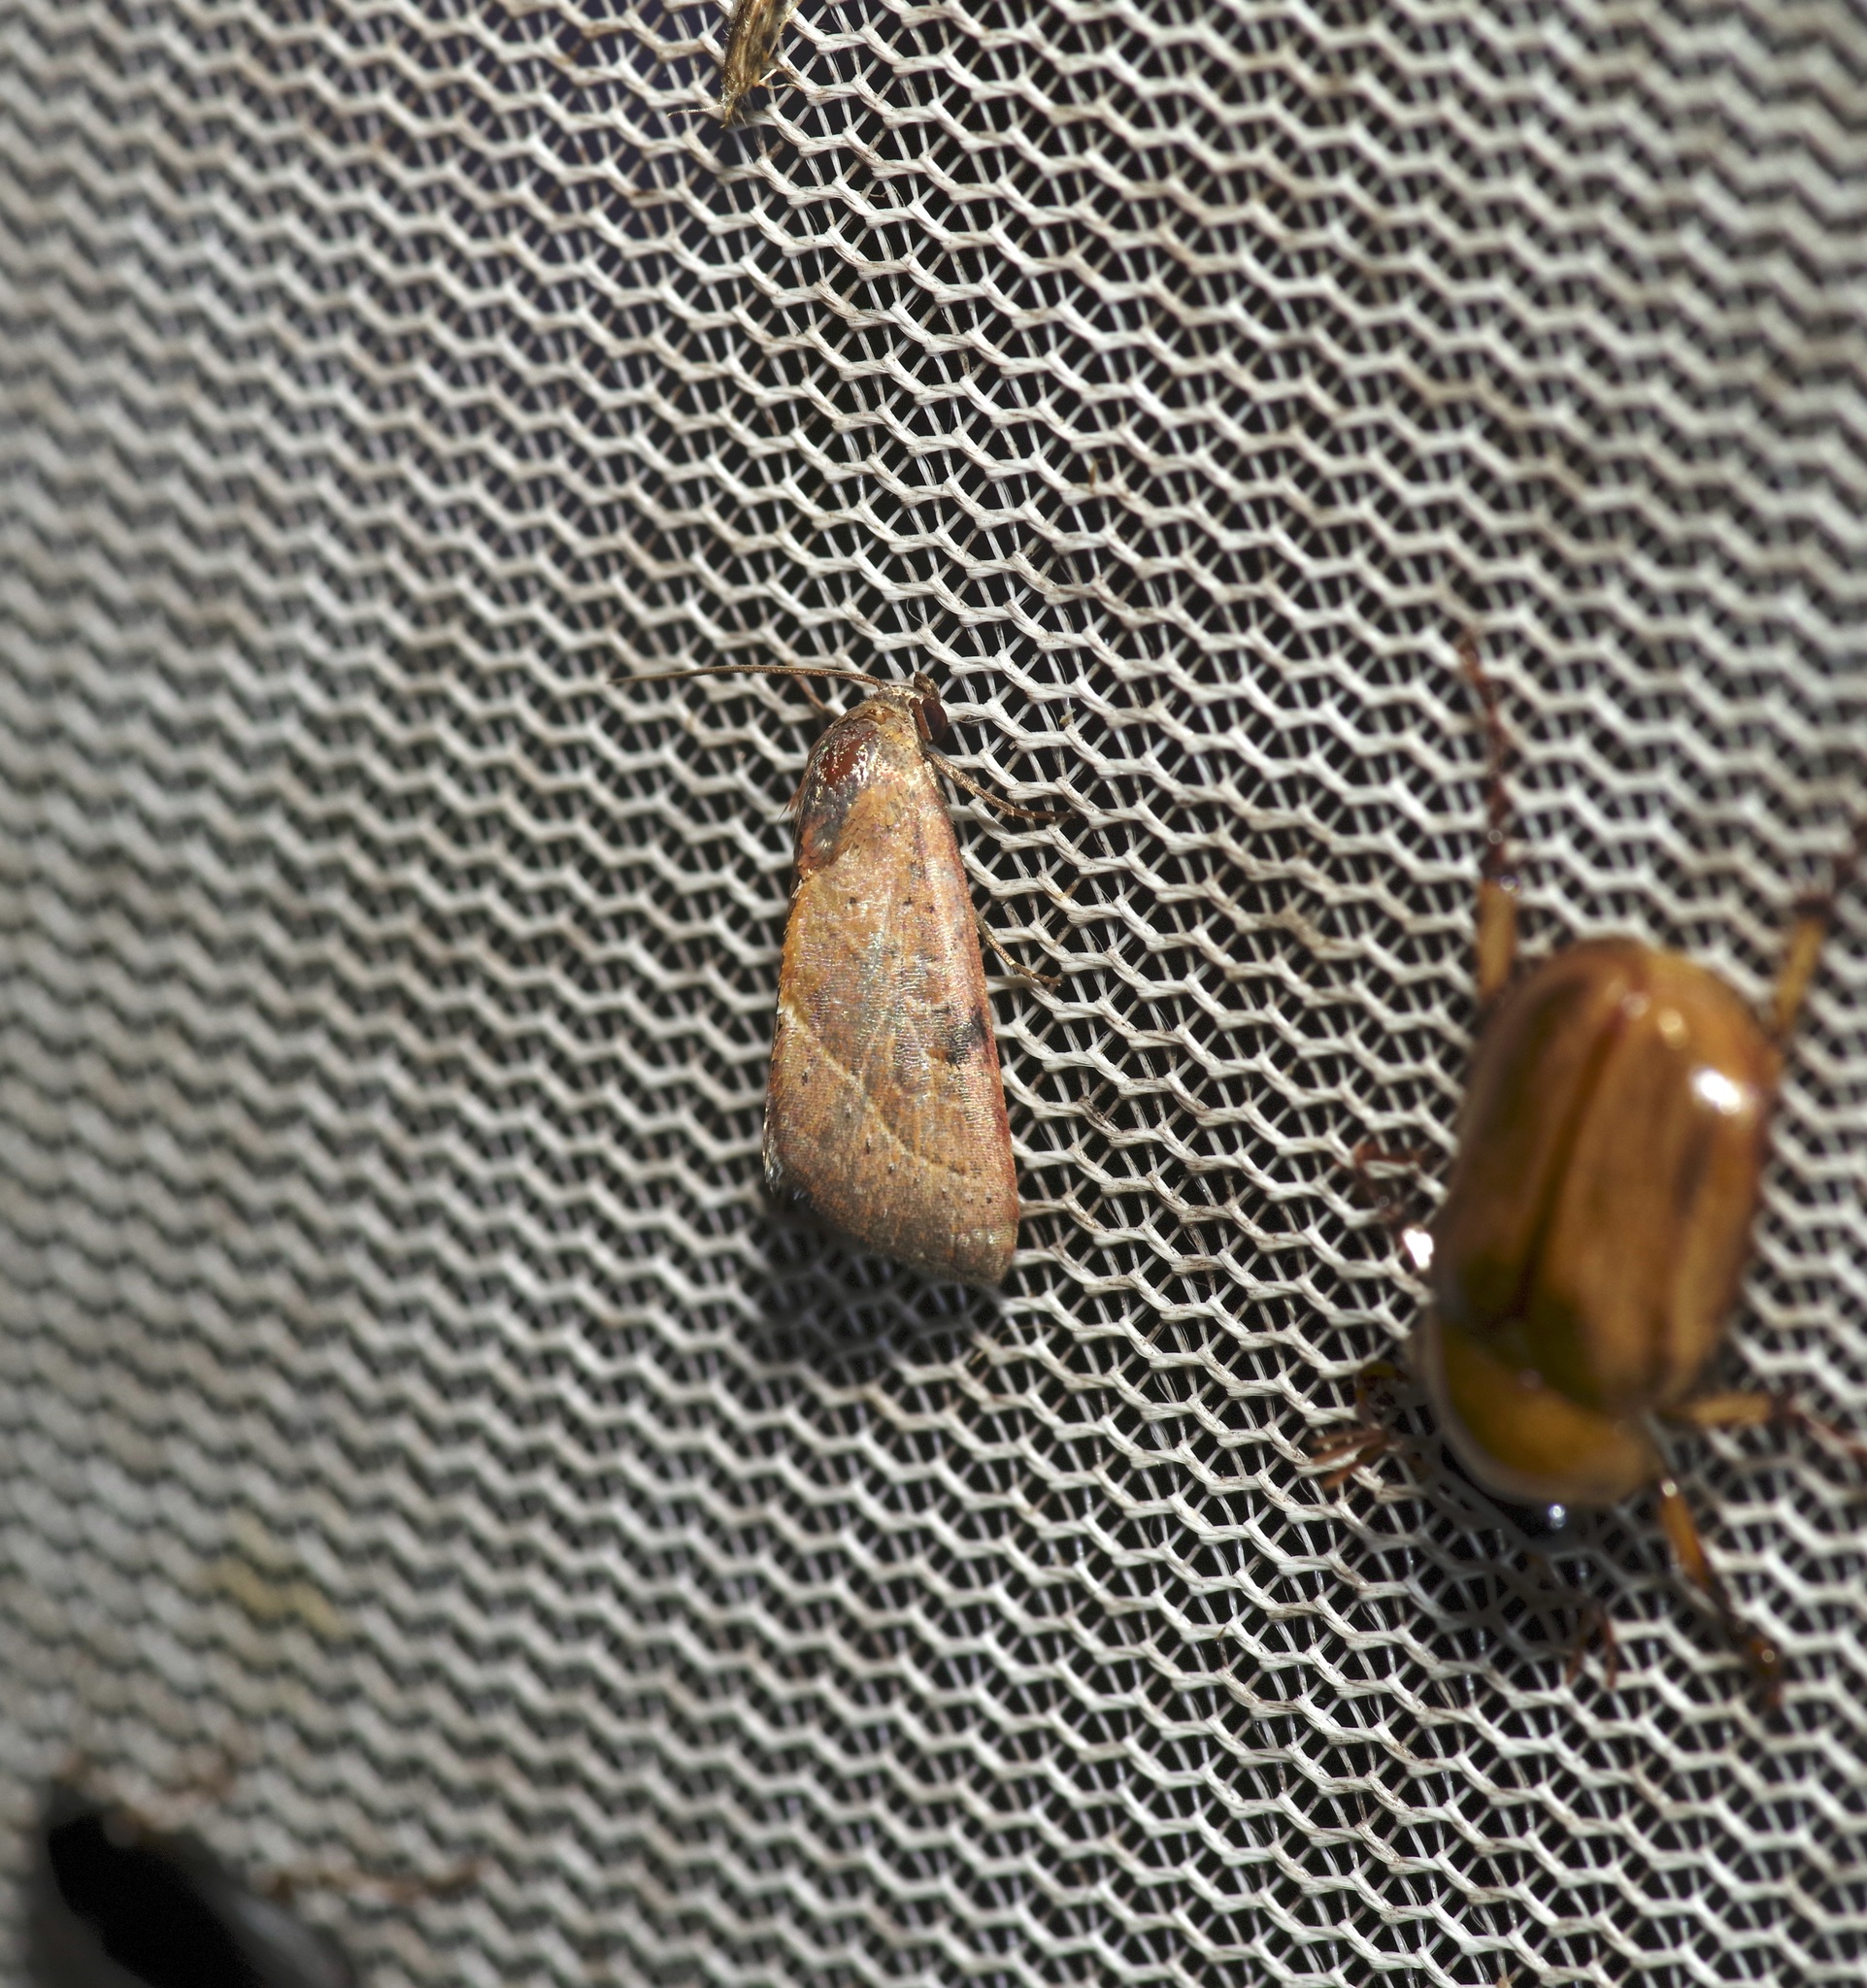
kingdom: Animalia
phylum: Arthropoda
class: Insecta
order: Lepidoptera
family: Noctuidae
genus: Galgula
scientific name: Galgula partita
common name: Wedgeling
